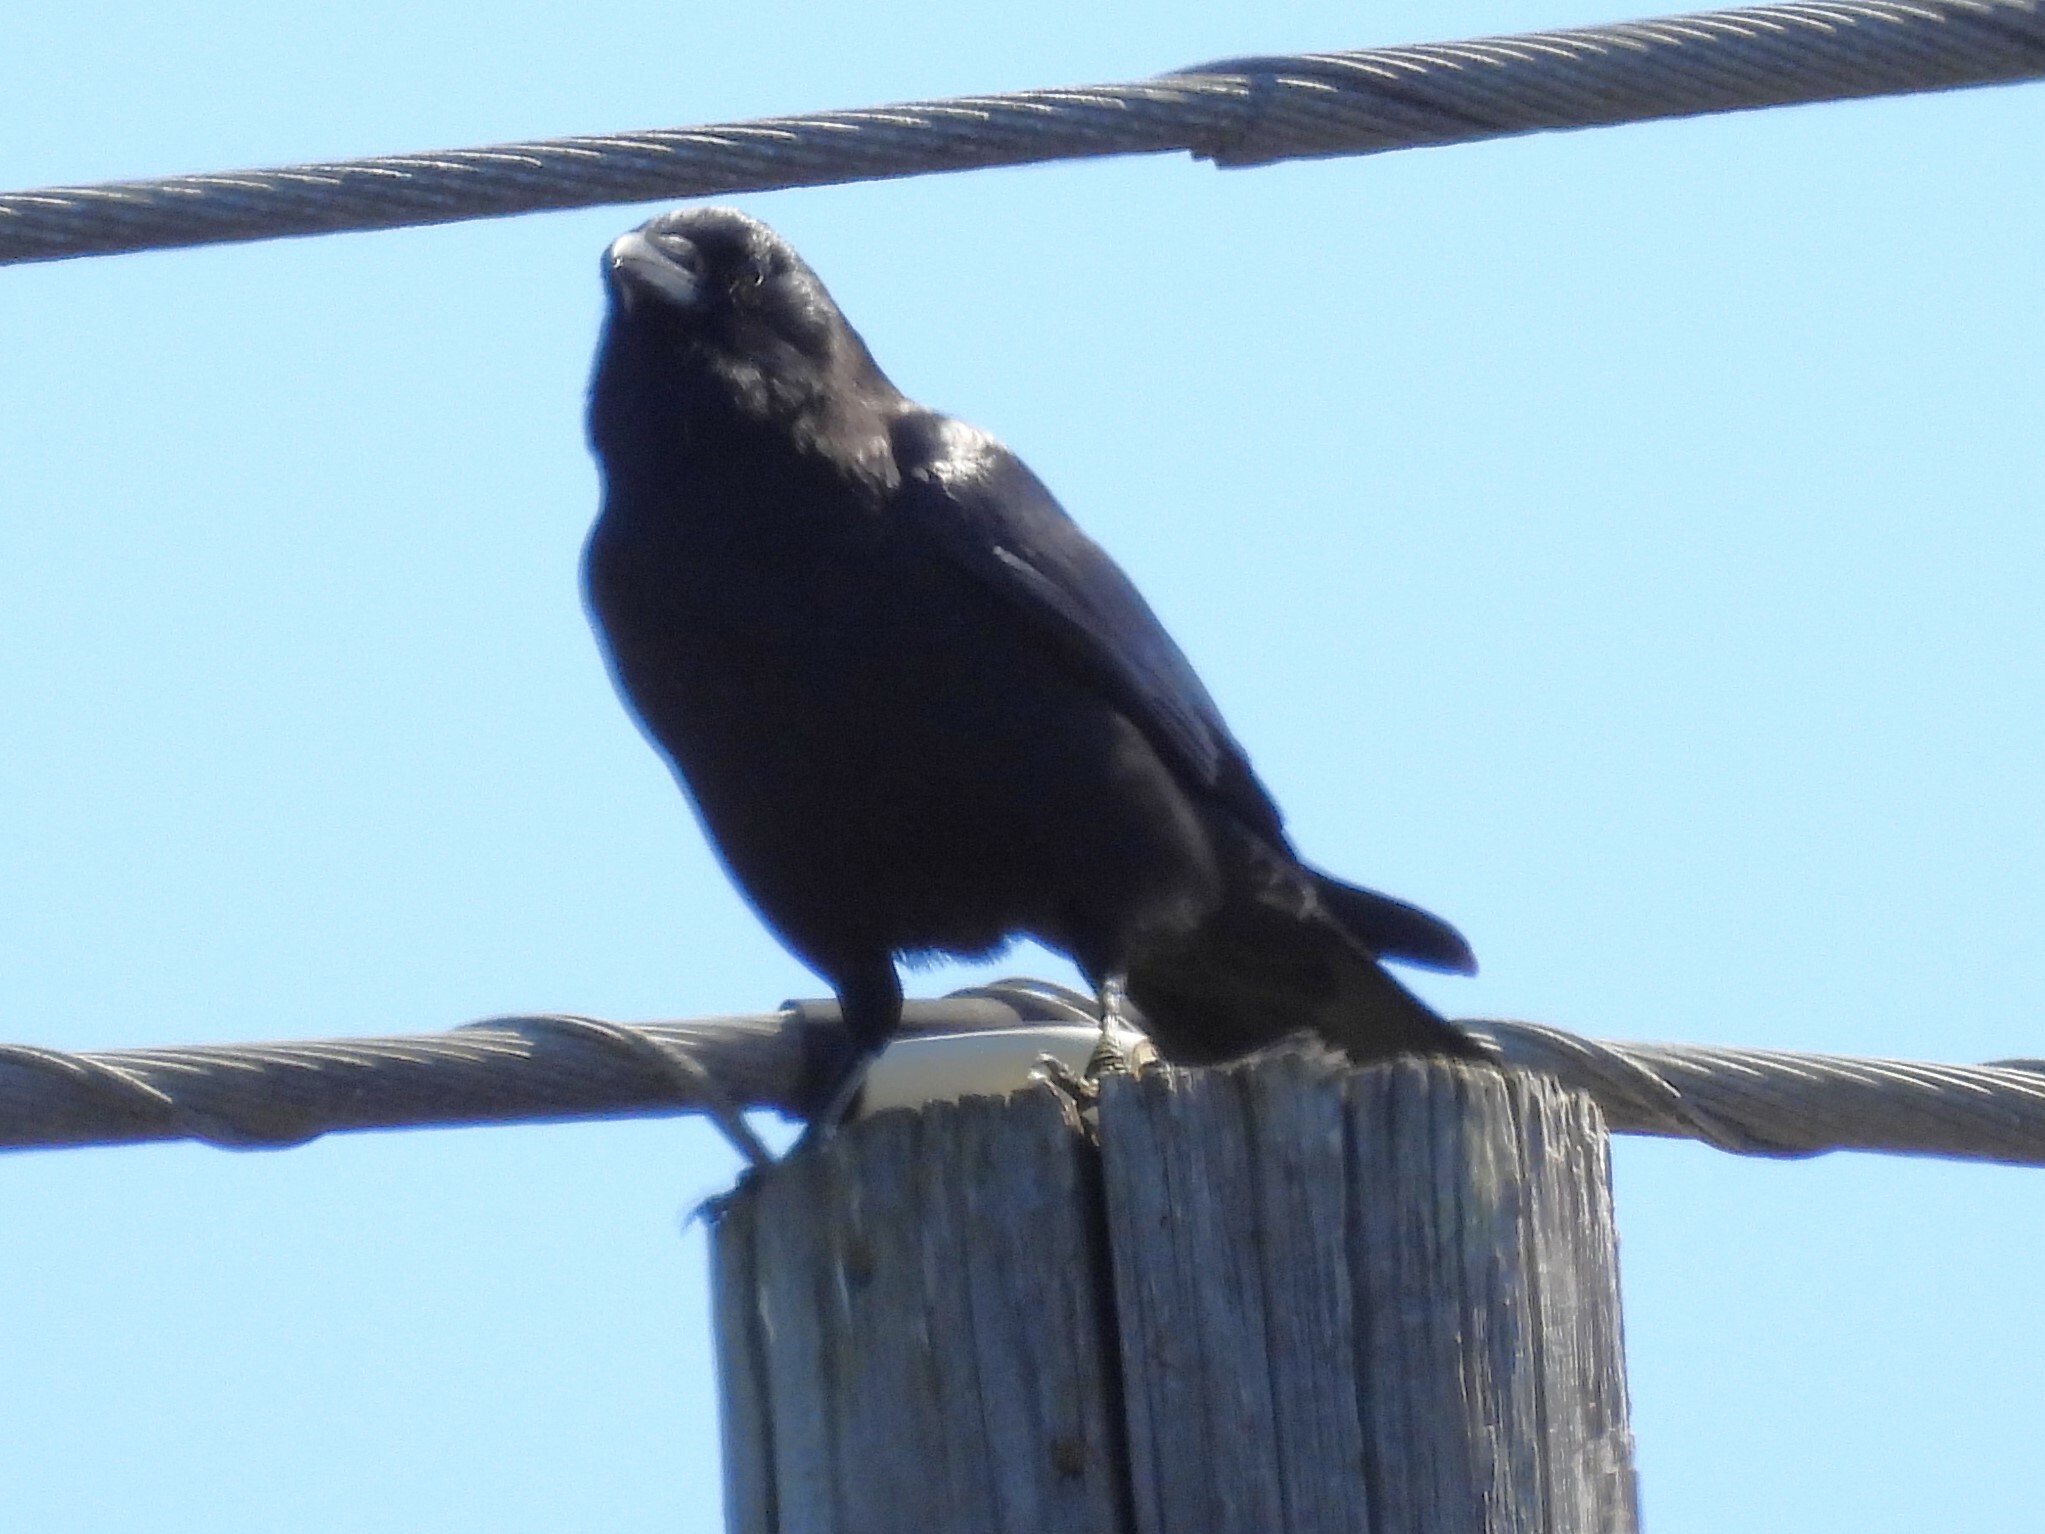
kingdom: Animalia
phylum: Chordata
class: Aves
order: Passeriformes
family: Corvidae
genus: Corvus
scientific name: Corvus brachyrhynchos
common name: American crow
